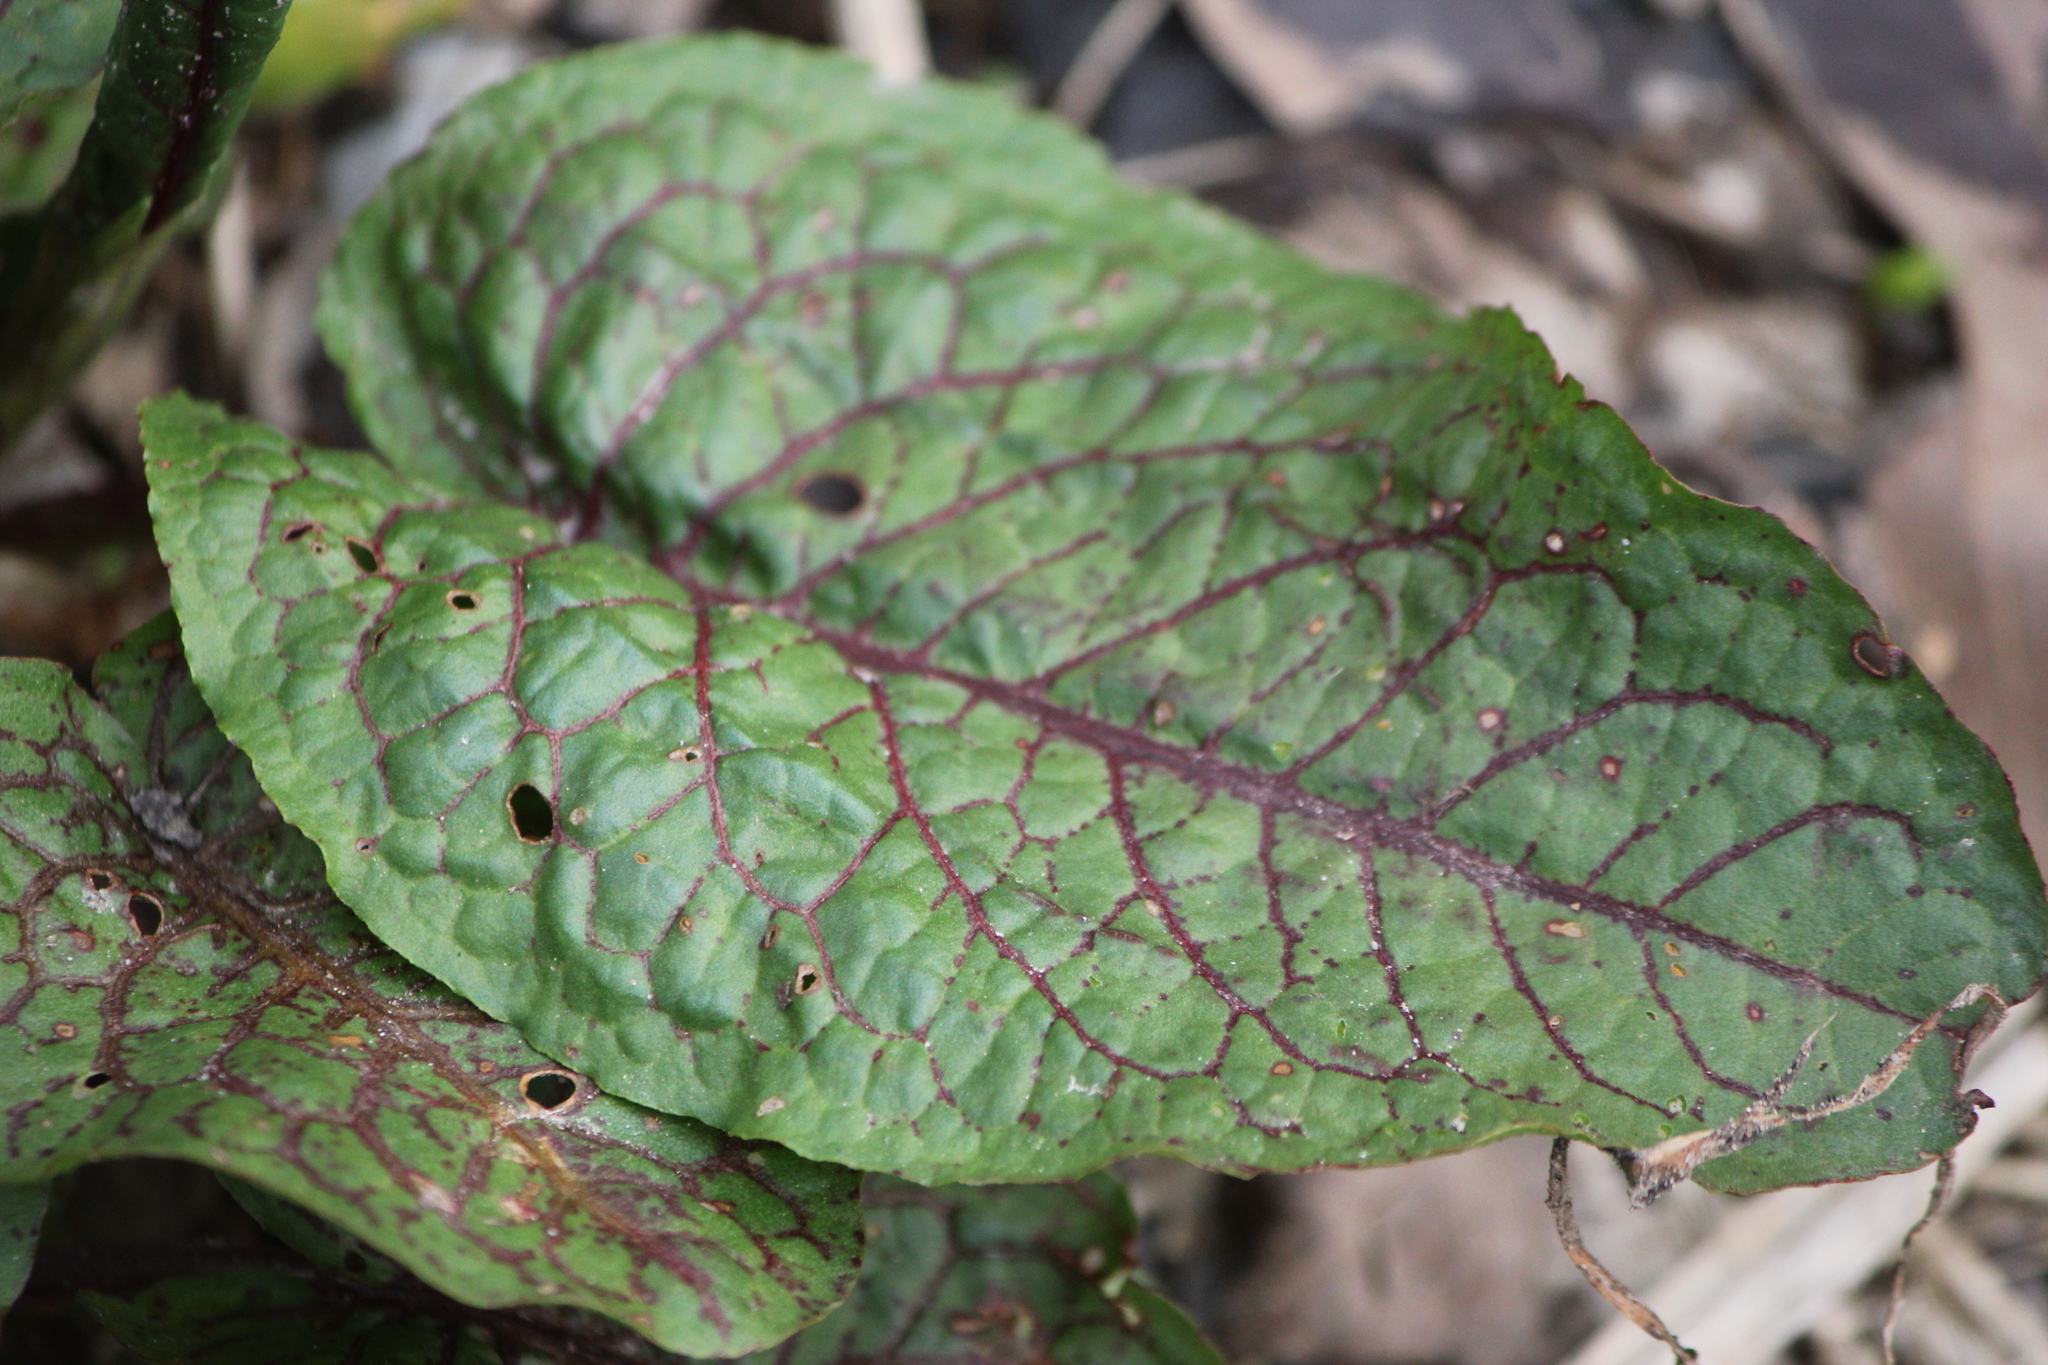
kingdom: Plantae
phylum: Tracheophyta
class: Magnoliopsida
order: Caryophyllales
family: Polygonaceae
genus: Rumex
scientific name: Rumex obtusifolius
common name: Bitter dock
